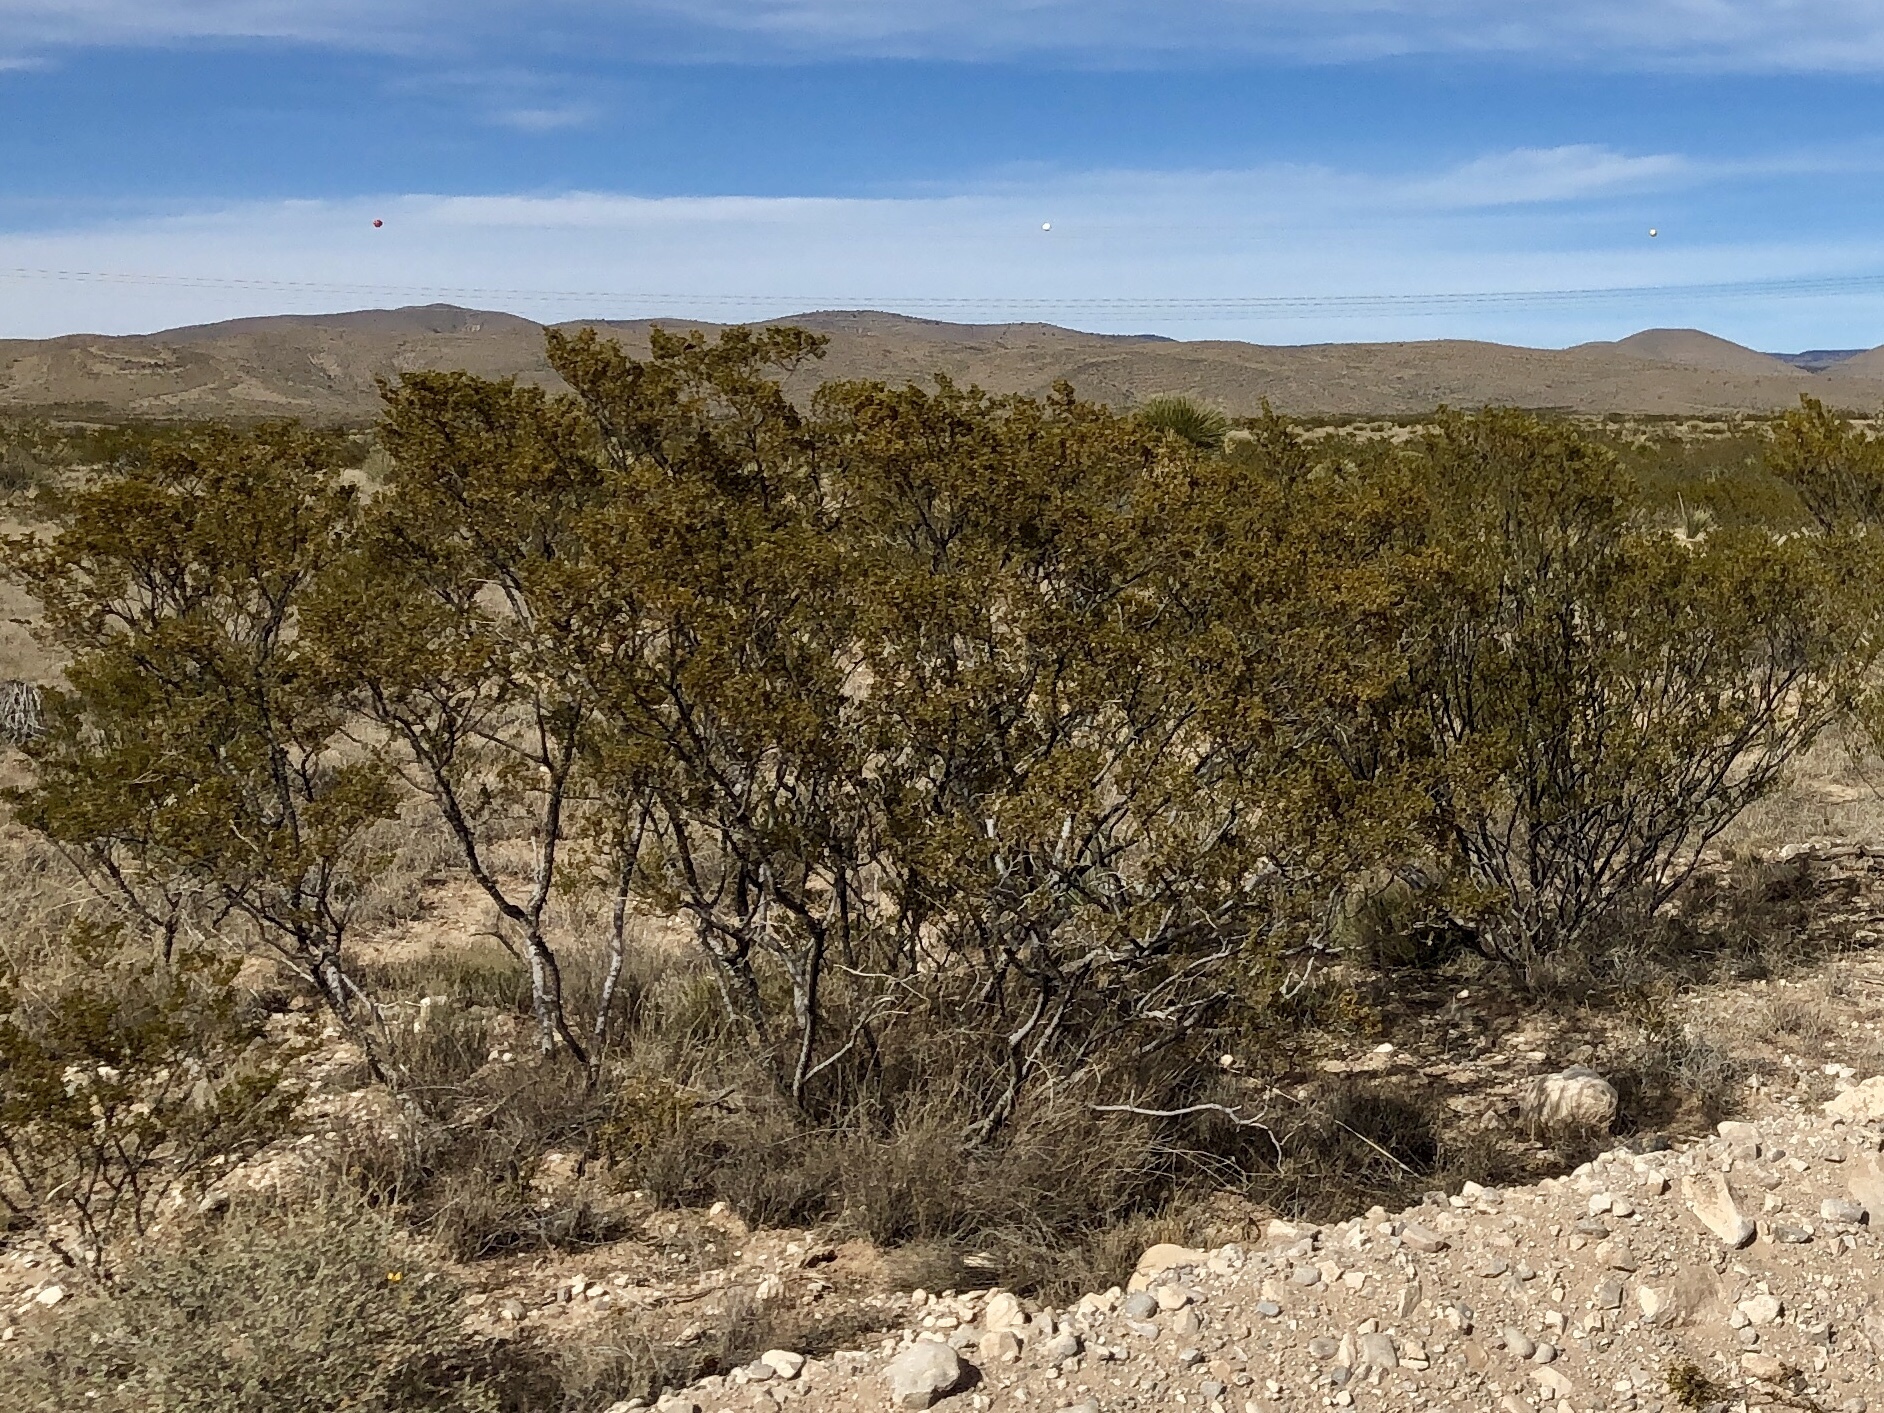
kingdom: Plantae
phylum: Tracheophyta
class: Magnoliopsida
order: Zygophyllales
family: Zygophyllaceae
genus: Larrea
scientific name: Larrea tridentata
